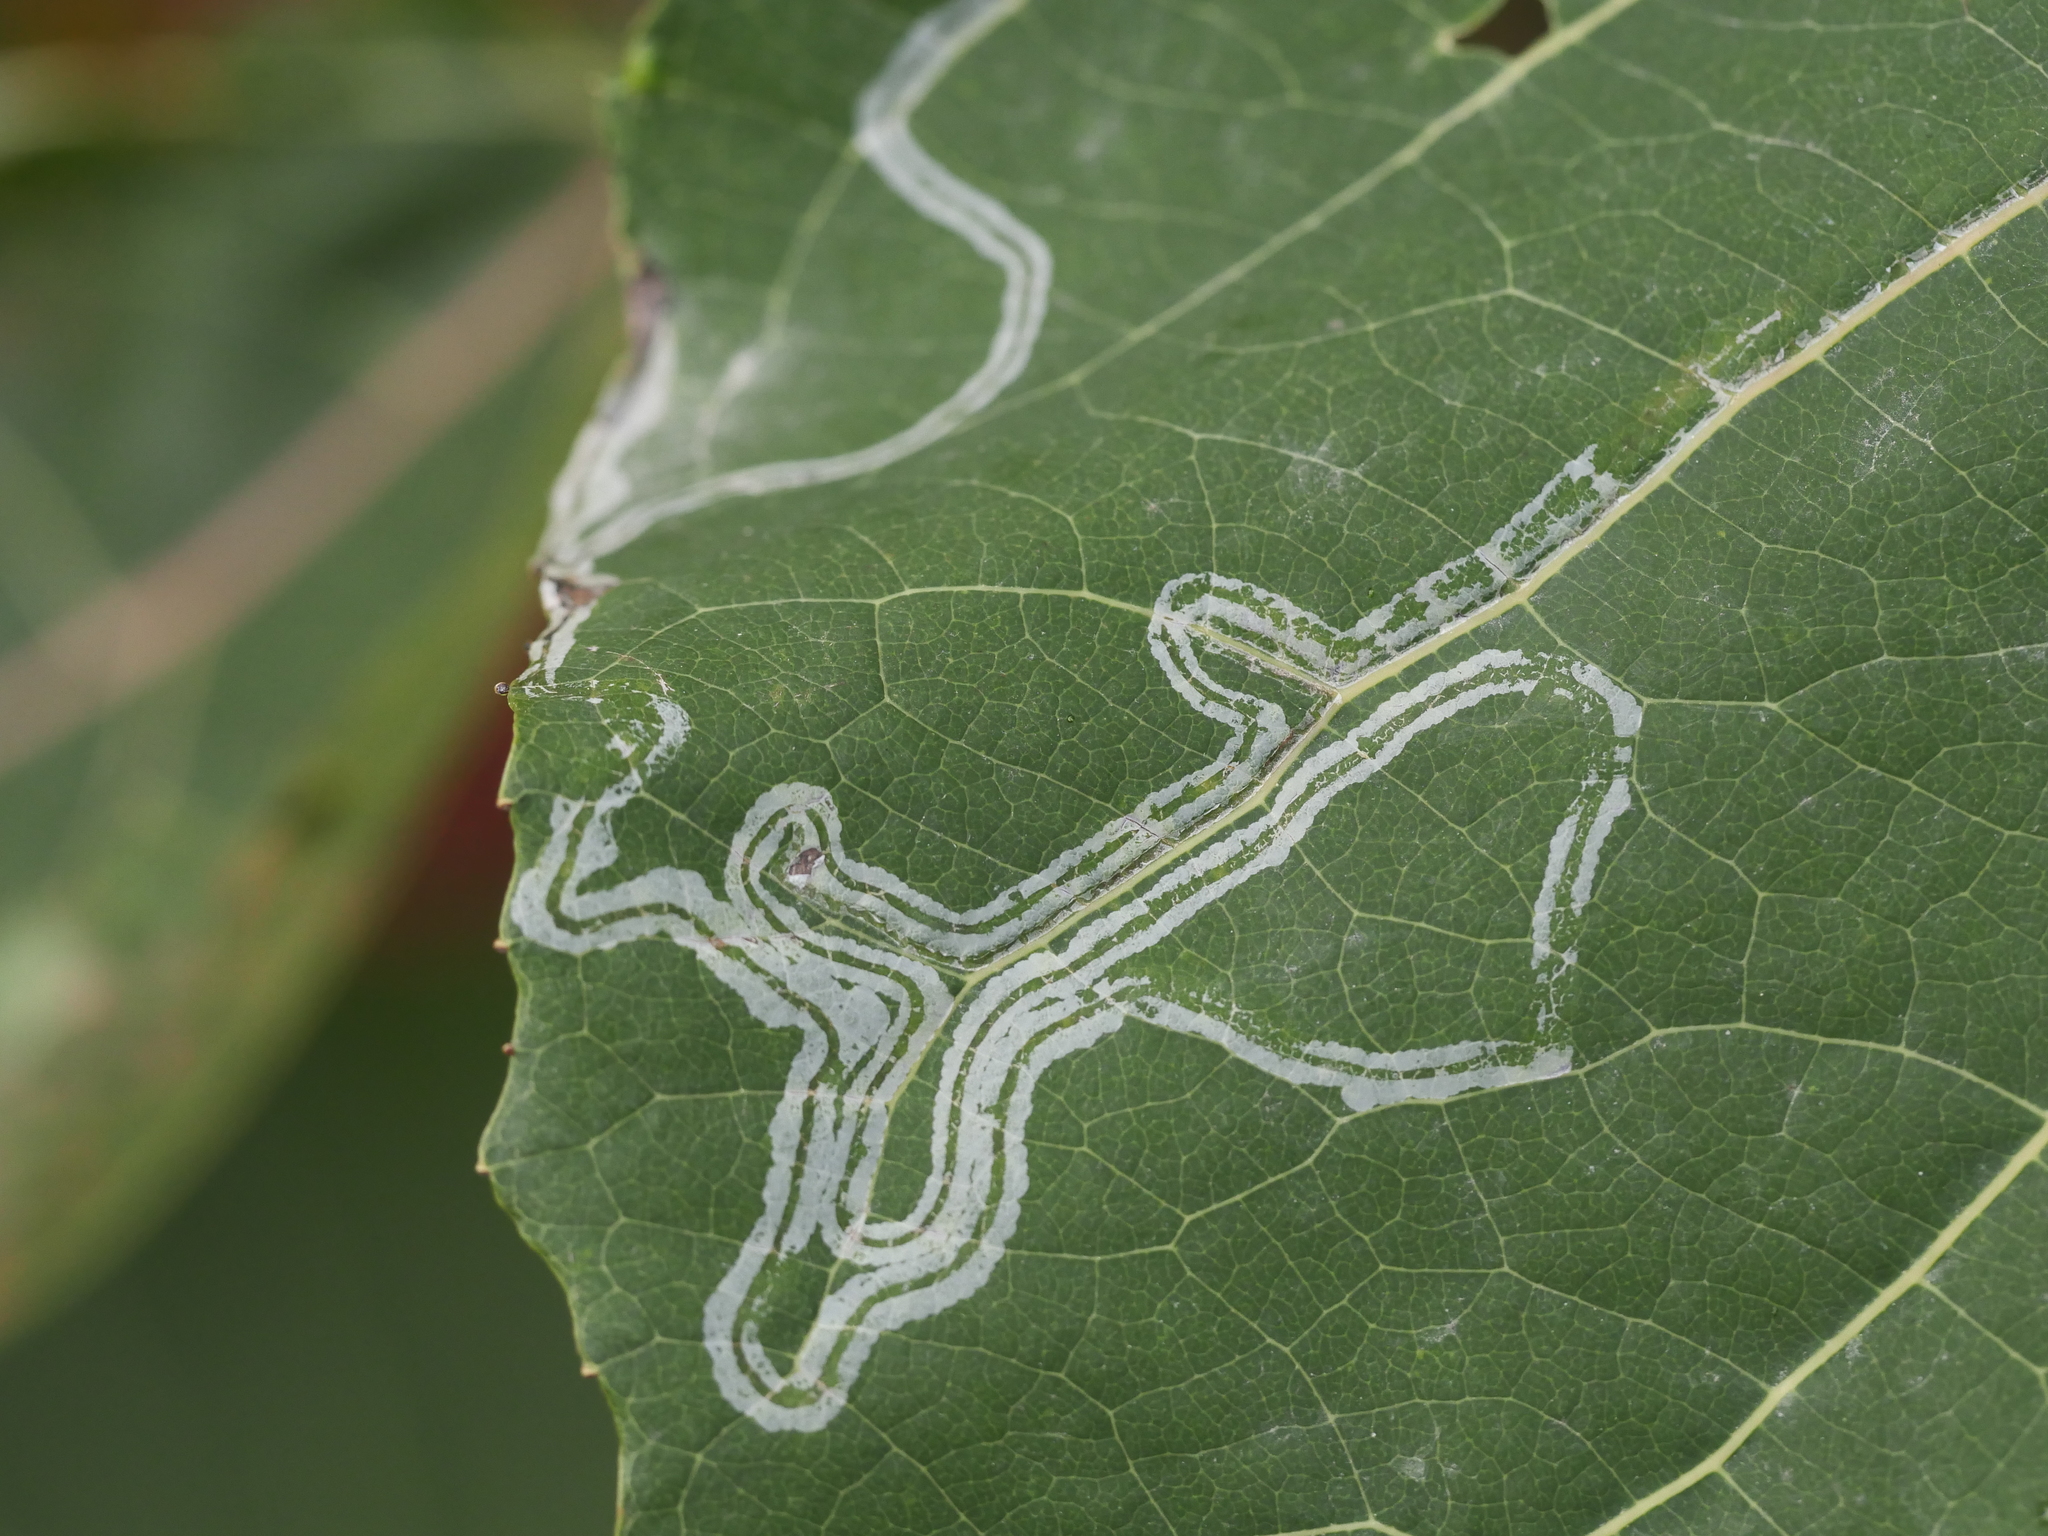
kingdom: Animalia
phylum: Arthropoda
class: Insecta
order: Lepidoptera
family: Gracillariidae
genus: Phyllocnistis
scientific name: Phyllocnistis populiella
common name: Aspen serpentine leafminer moth
